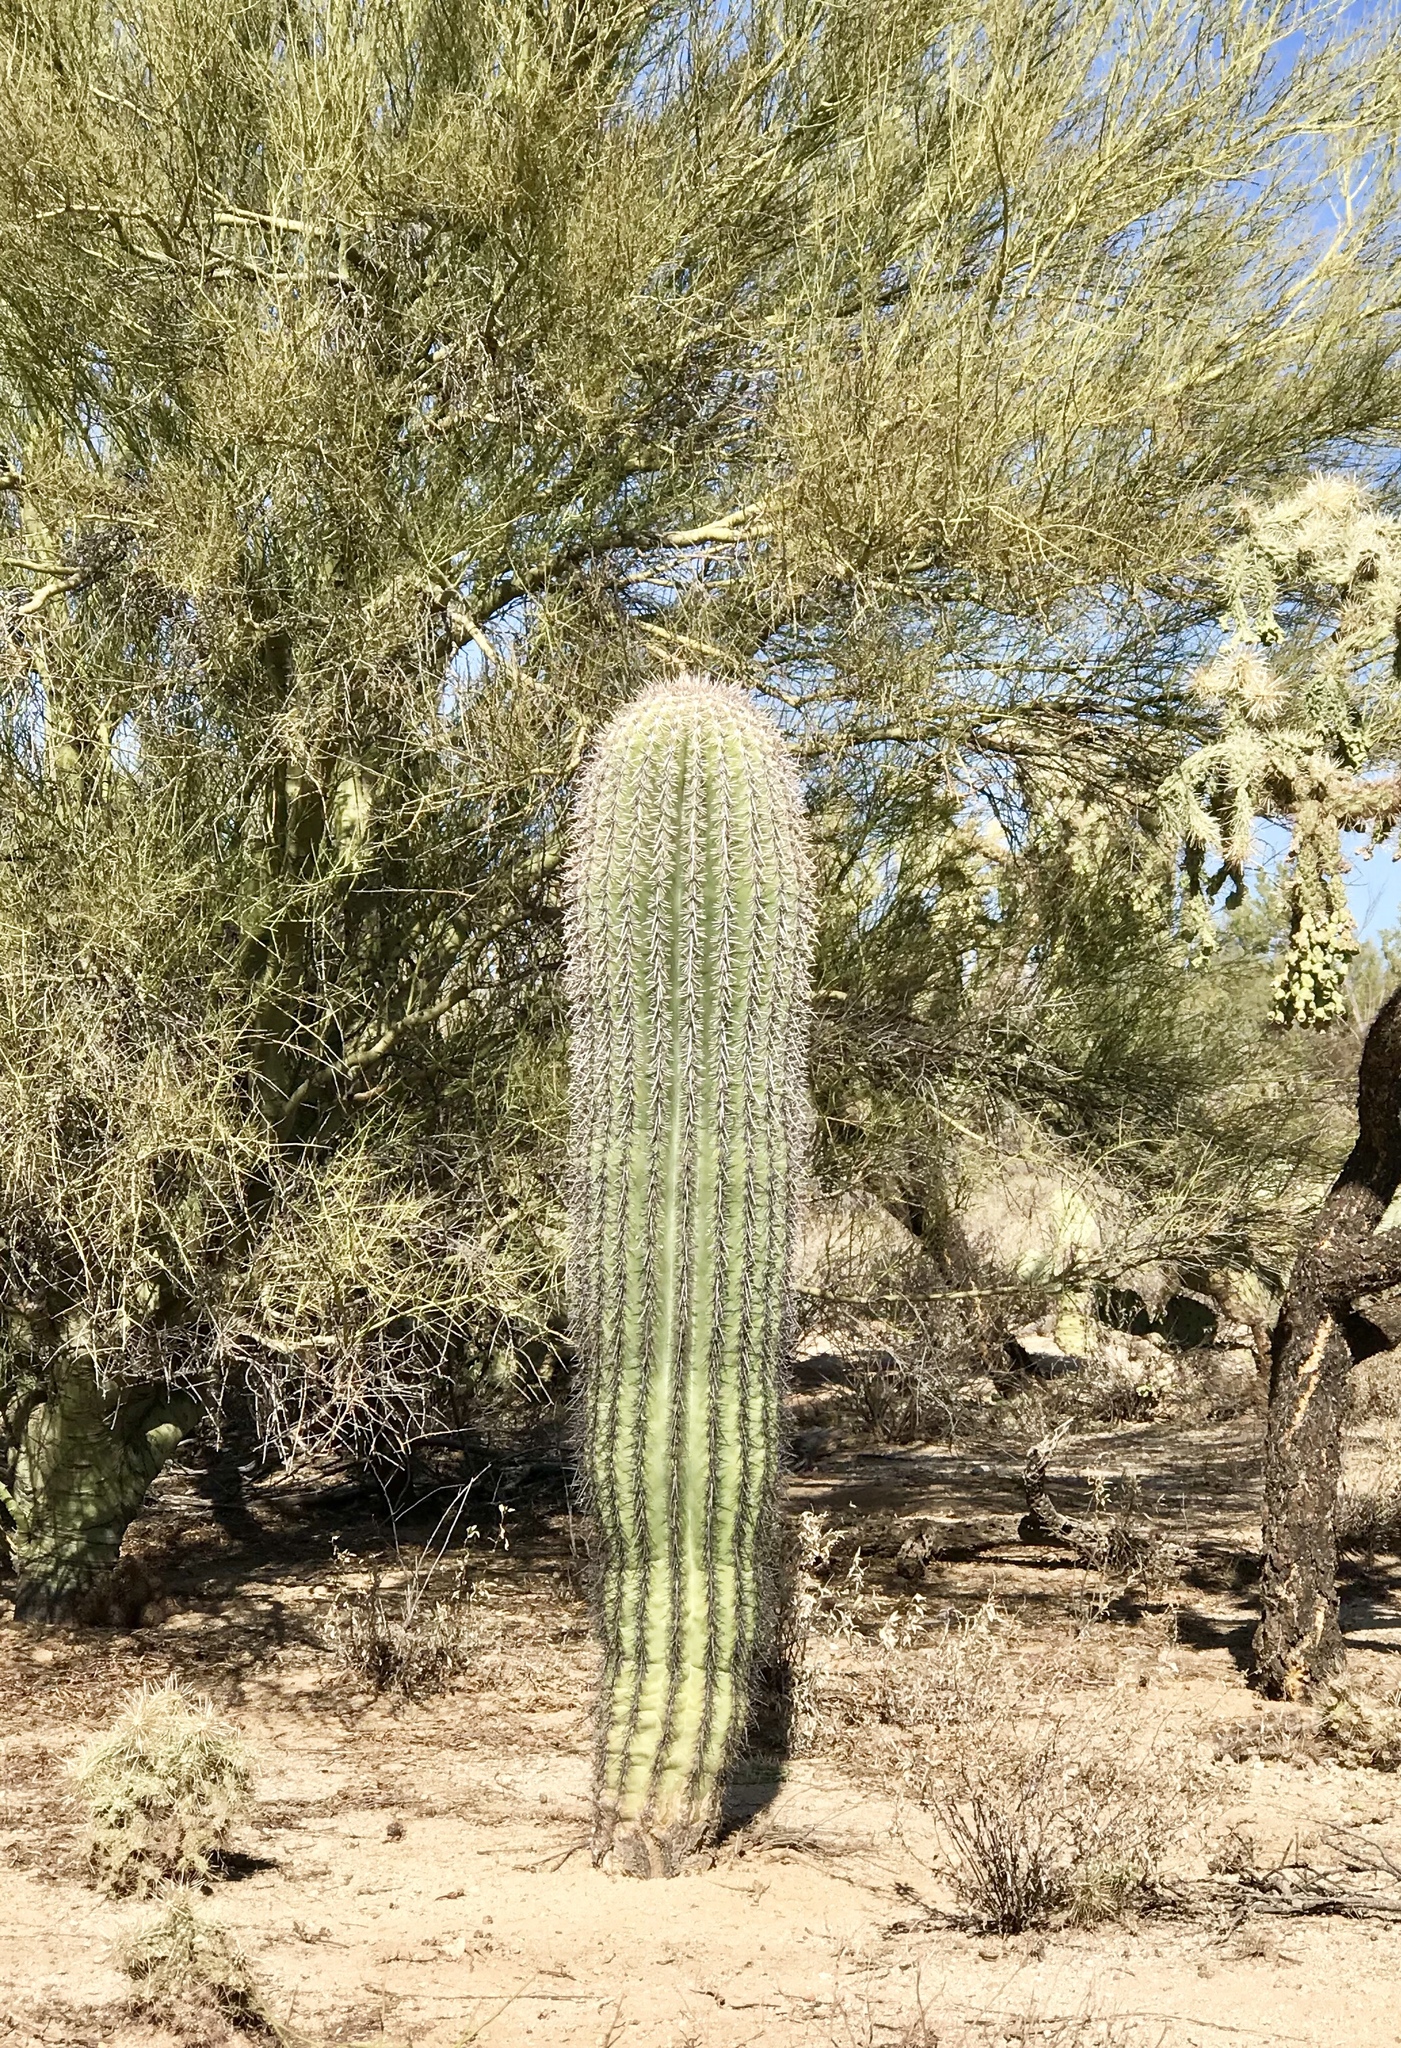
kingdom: Plantae
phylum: Tracheophyta
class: Magnoliopsida
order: Caryophyllales
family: Cactaceae
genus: Carnegiea
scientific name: Carnegiea gigantea
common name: Saguaro
